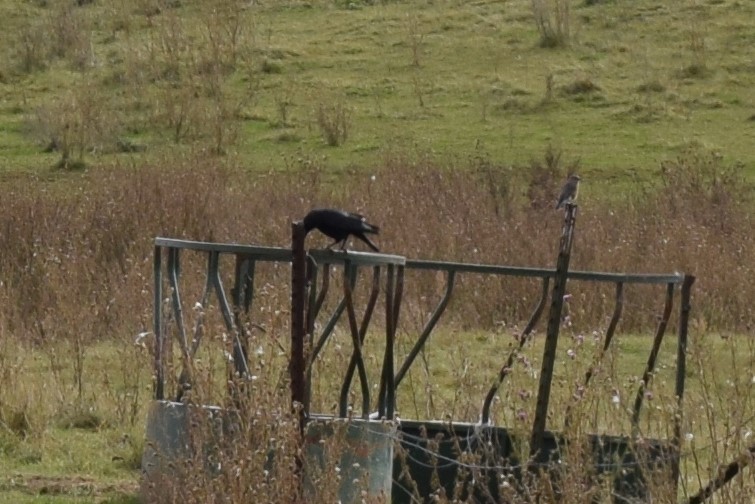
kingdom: Animalia
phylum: Chordata
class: Aves
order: Passeriformes
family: Corvidae
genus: Corvus
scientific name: Corvus brachyrhynchos
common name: American crow
